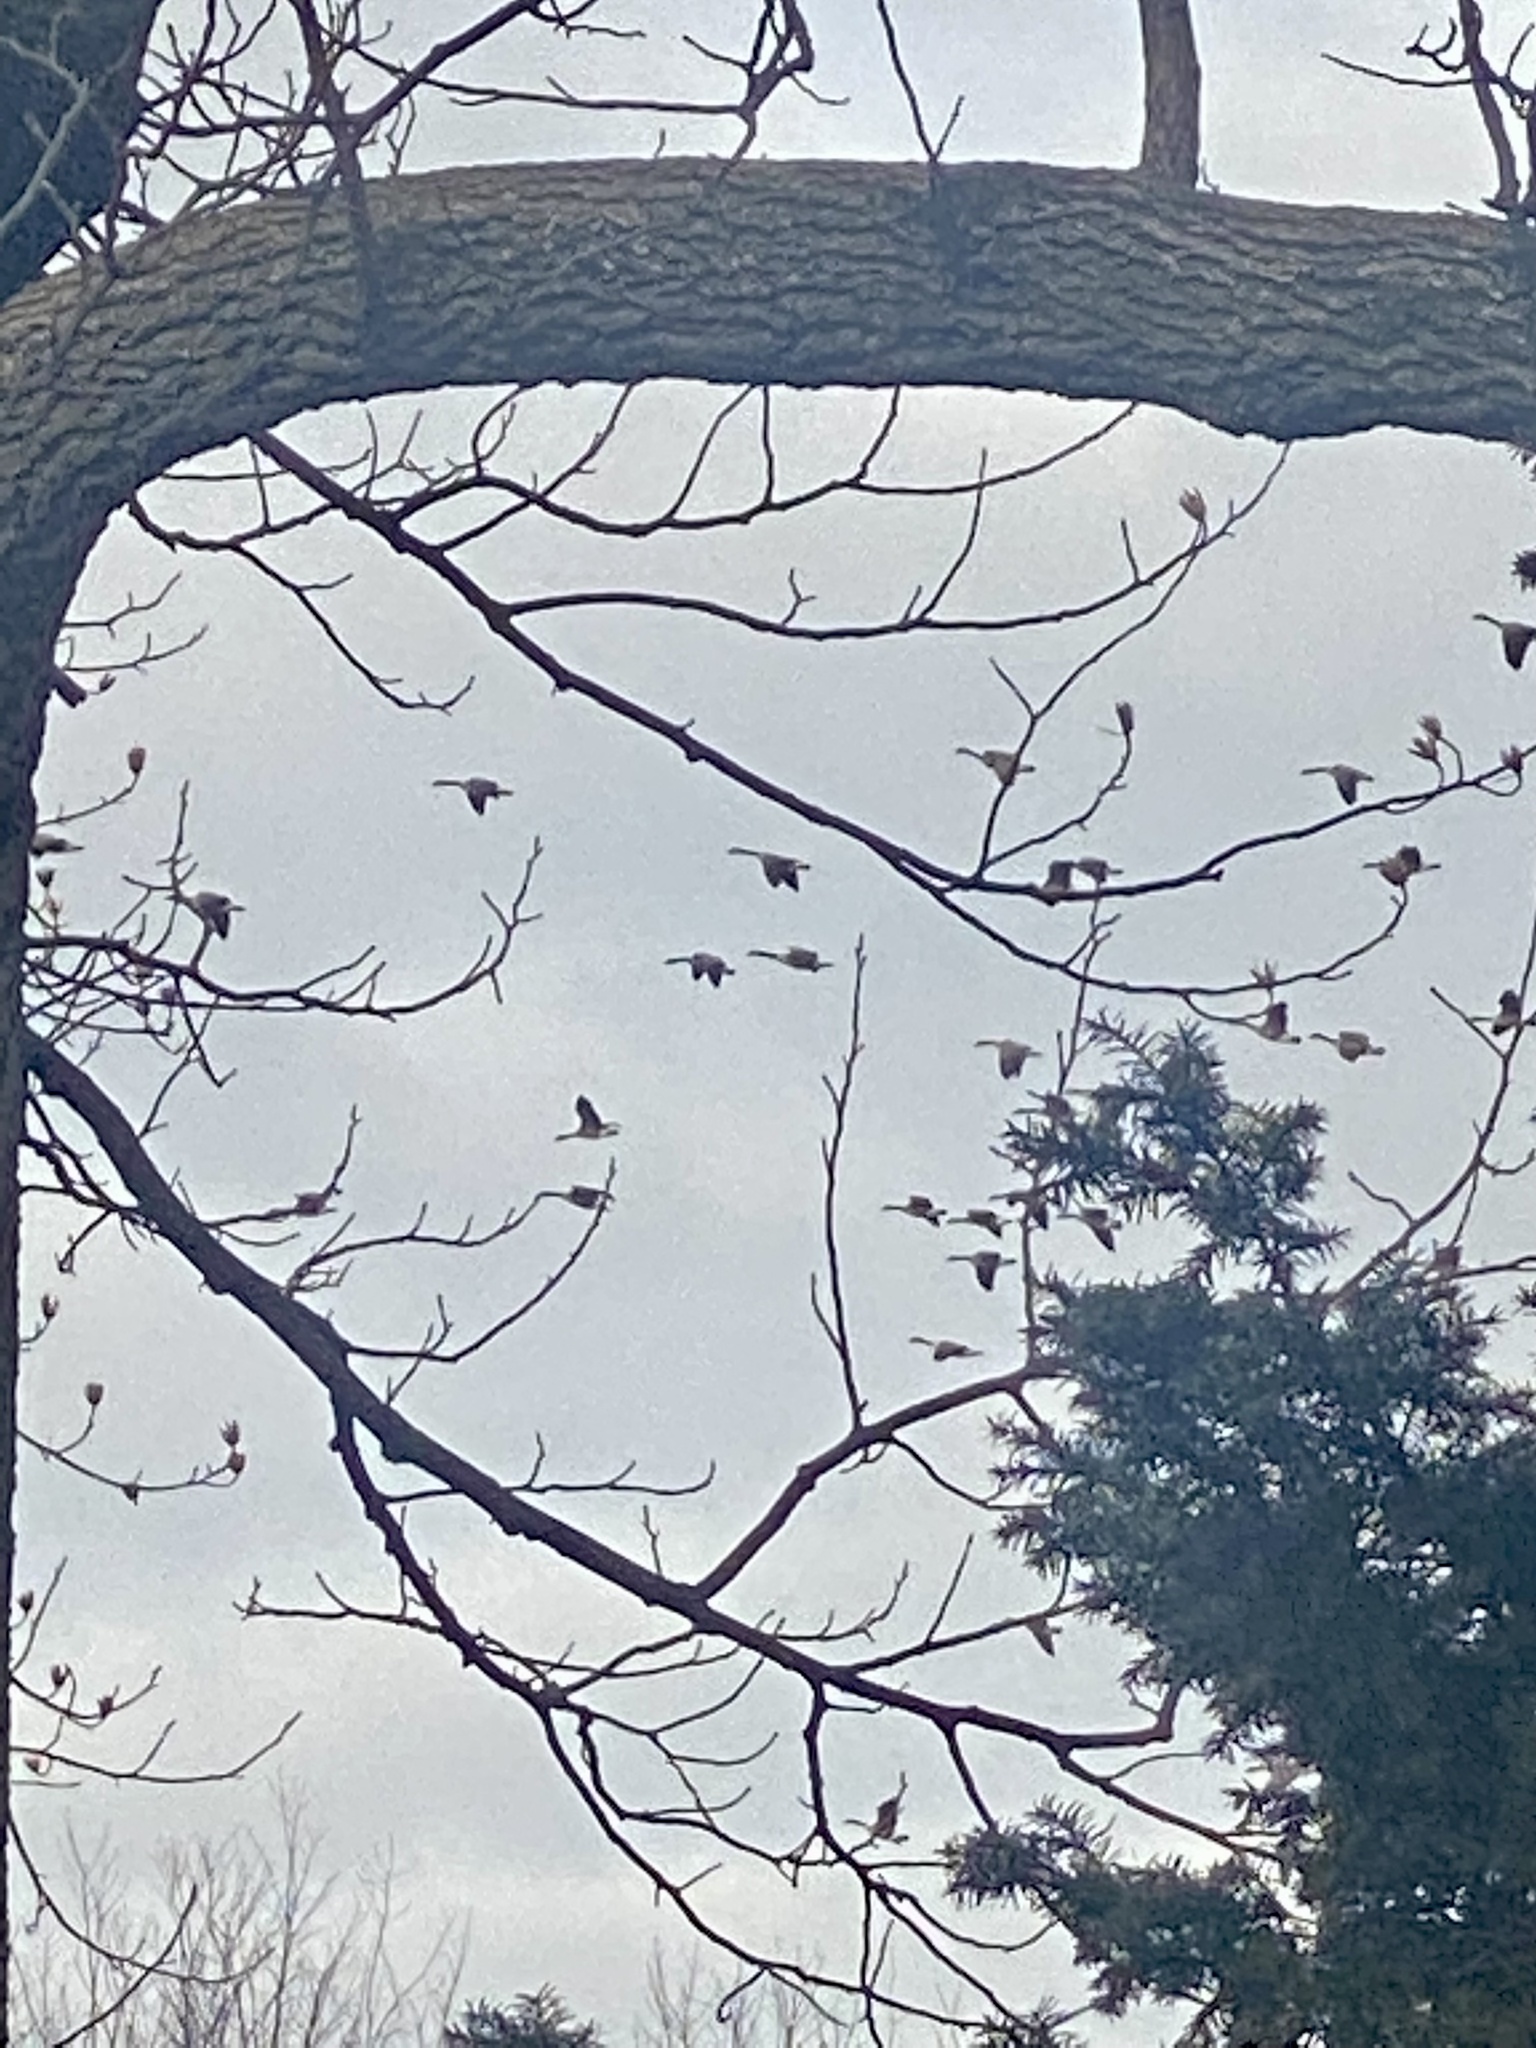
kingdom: Animalia
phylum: Chordata
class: Aves
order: Anseriformes
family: Anatidae
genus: Branta
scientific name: Branta canadensis
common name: Canada goose
